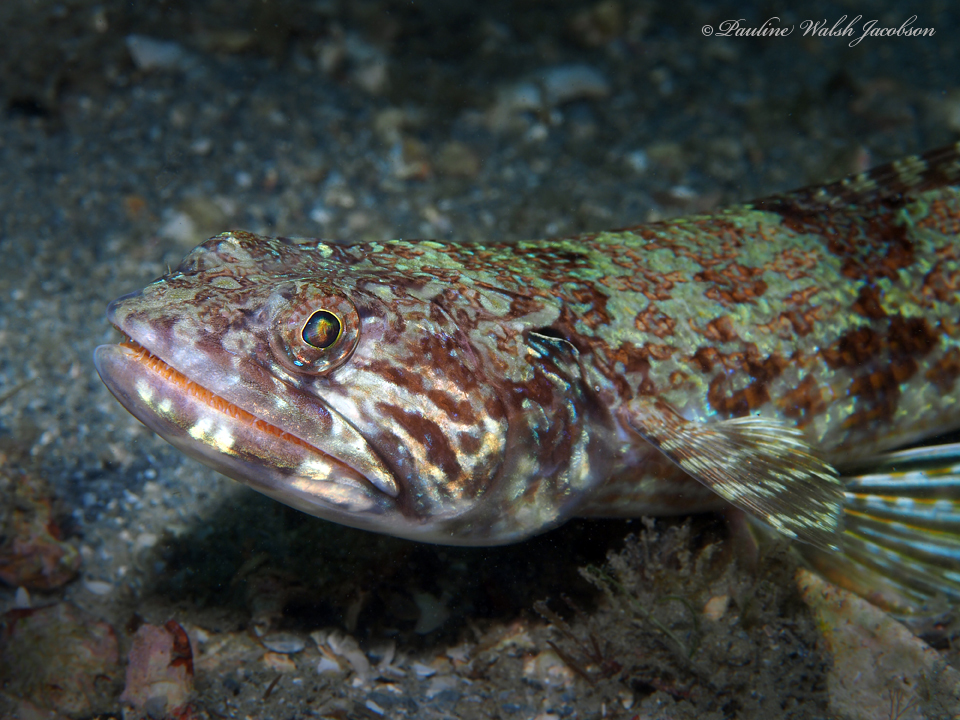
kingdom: Animalia
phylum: Chordata
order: Aulopiformes
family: Synodontidae
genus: Synodus
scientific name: Synodus intermedius
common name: Sand diver
